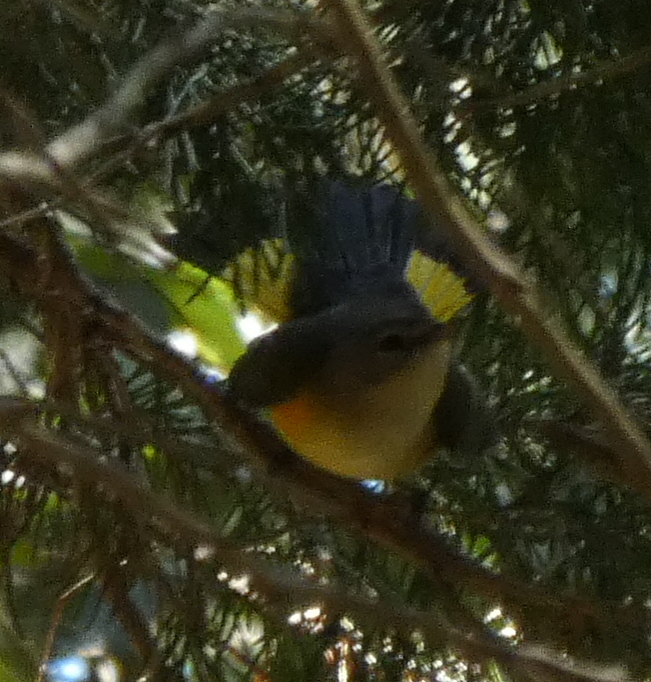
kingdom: Animalia
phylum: Chordata
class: Aves
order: Passeriformes
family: Parulidae
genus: Setophaga
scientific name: Setophaga ruticilla
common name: American redstart
